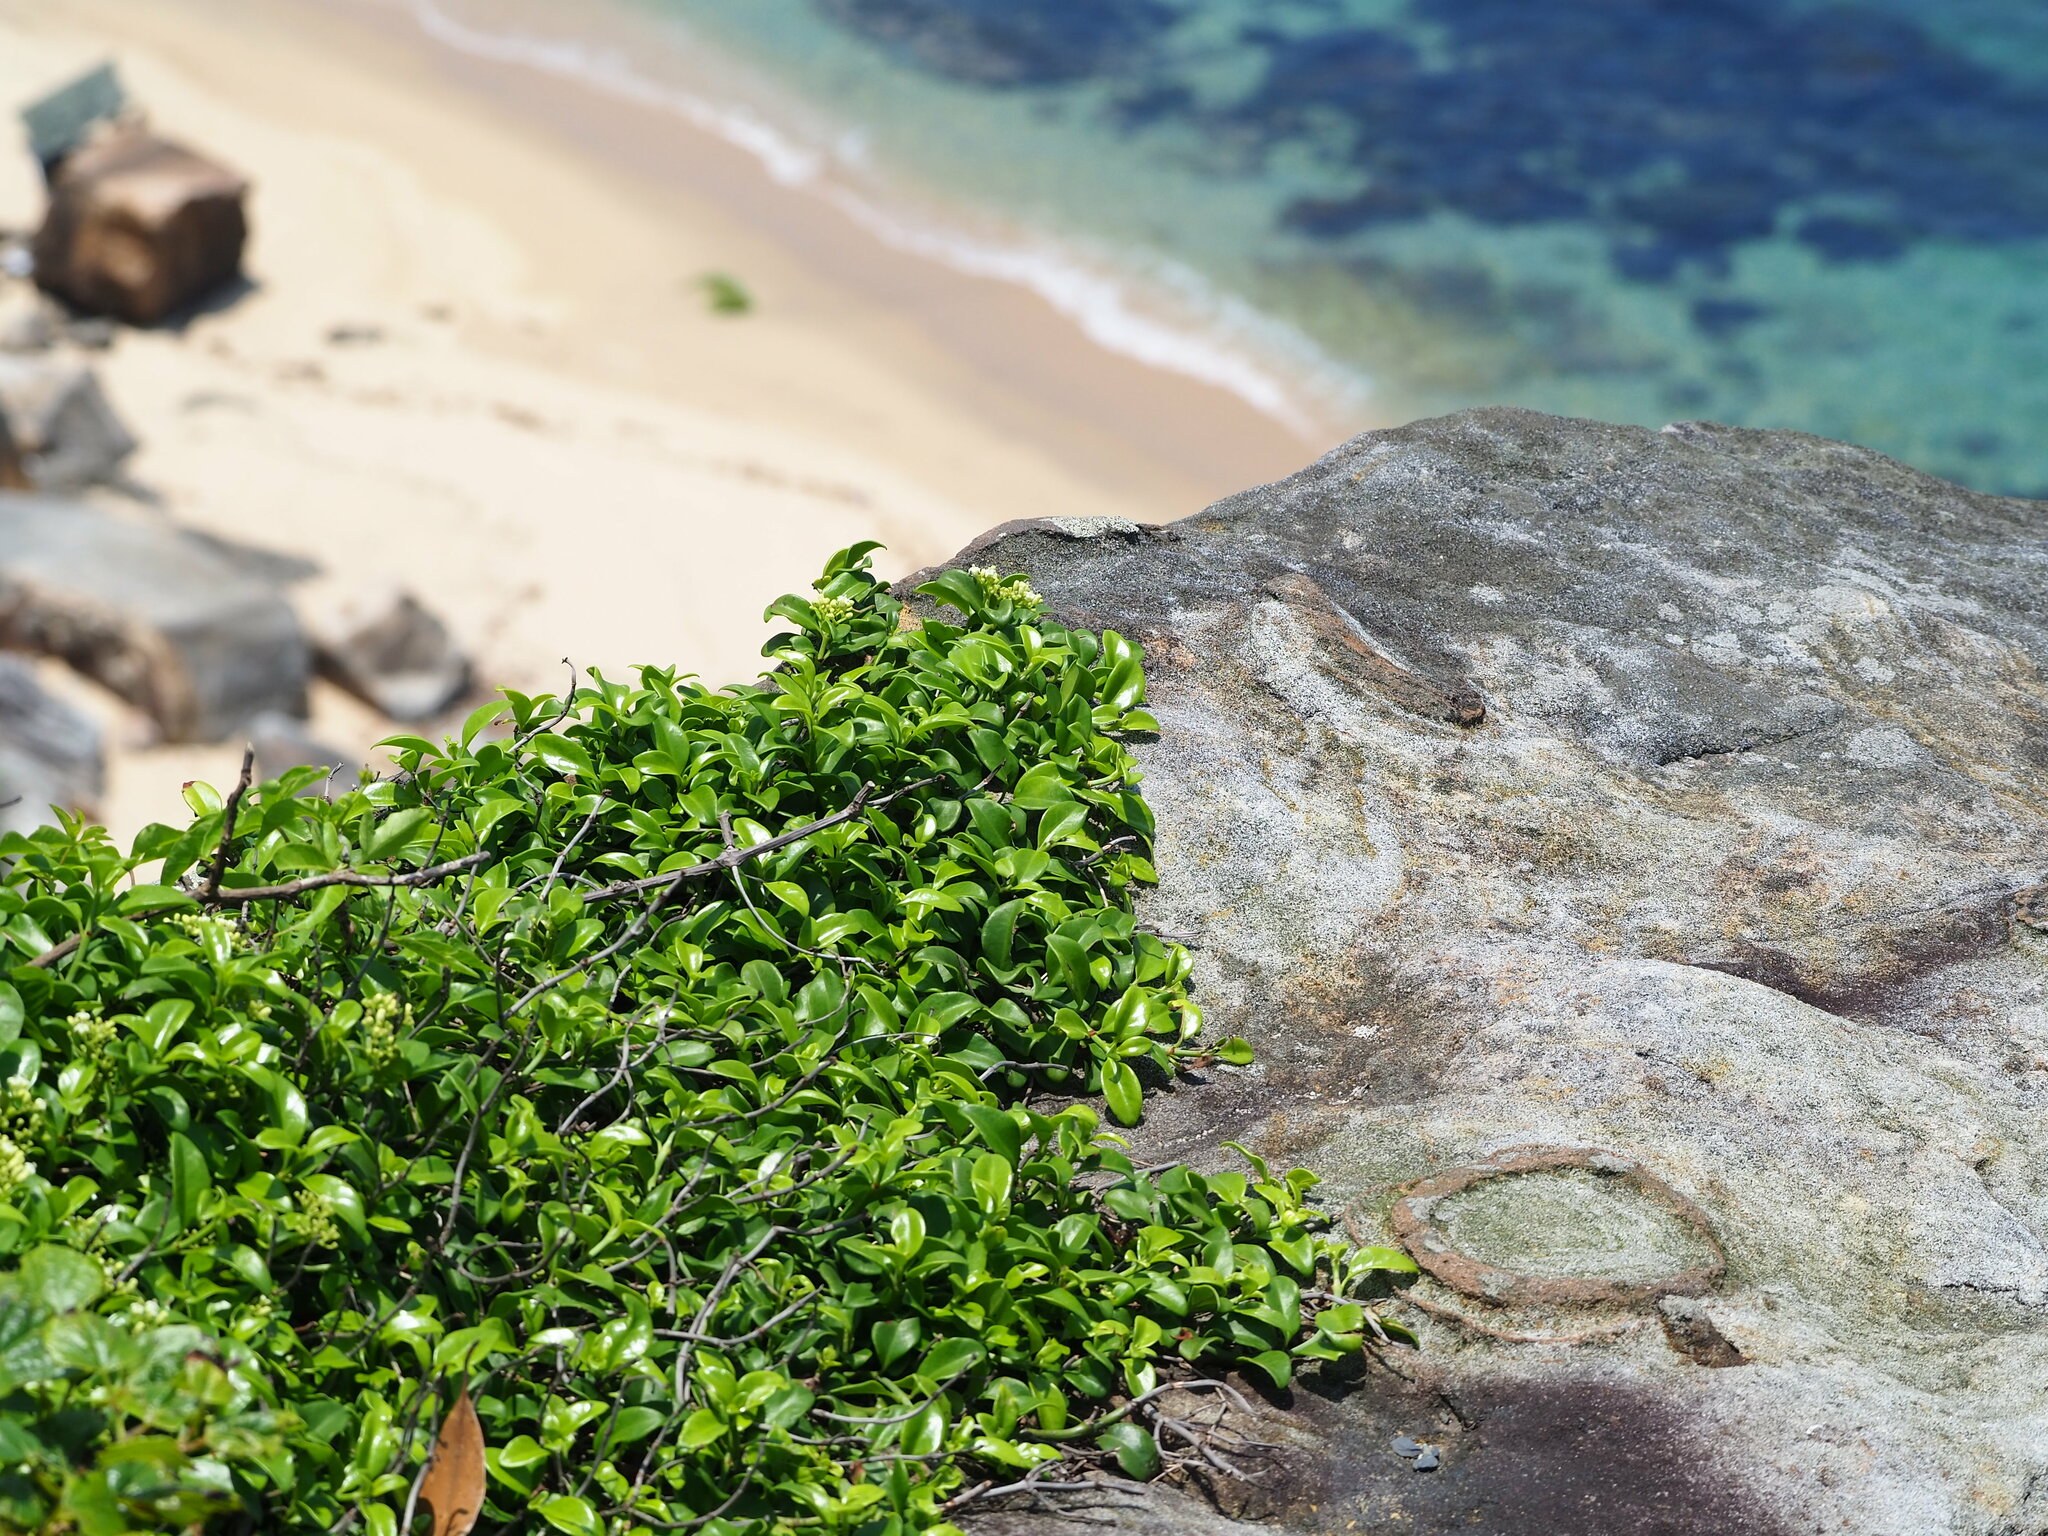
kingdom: Plantae
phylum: Tracheophyta
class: Magnoliopsida
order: Gentianales
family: Rubiaceae
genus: Psychotria
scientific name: Psychotria serpens
